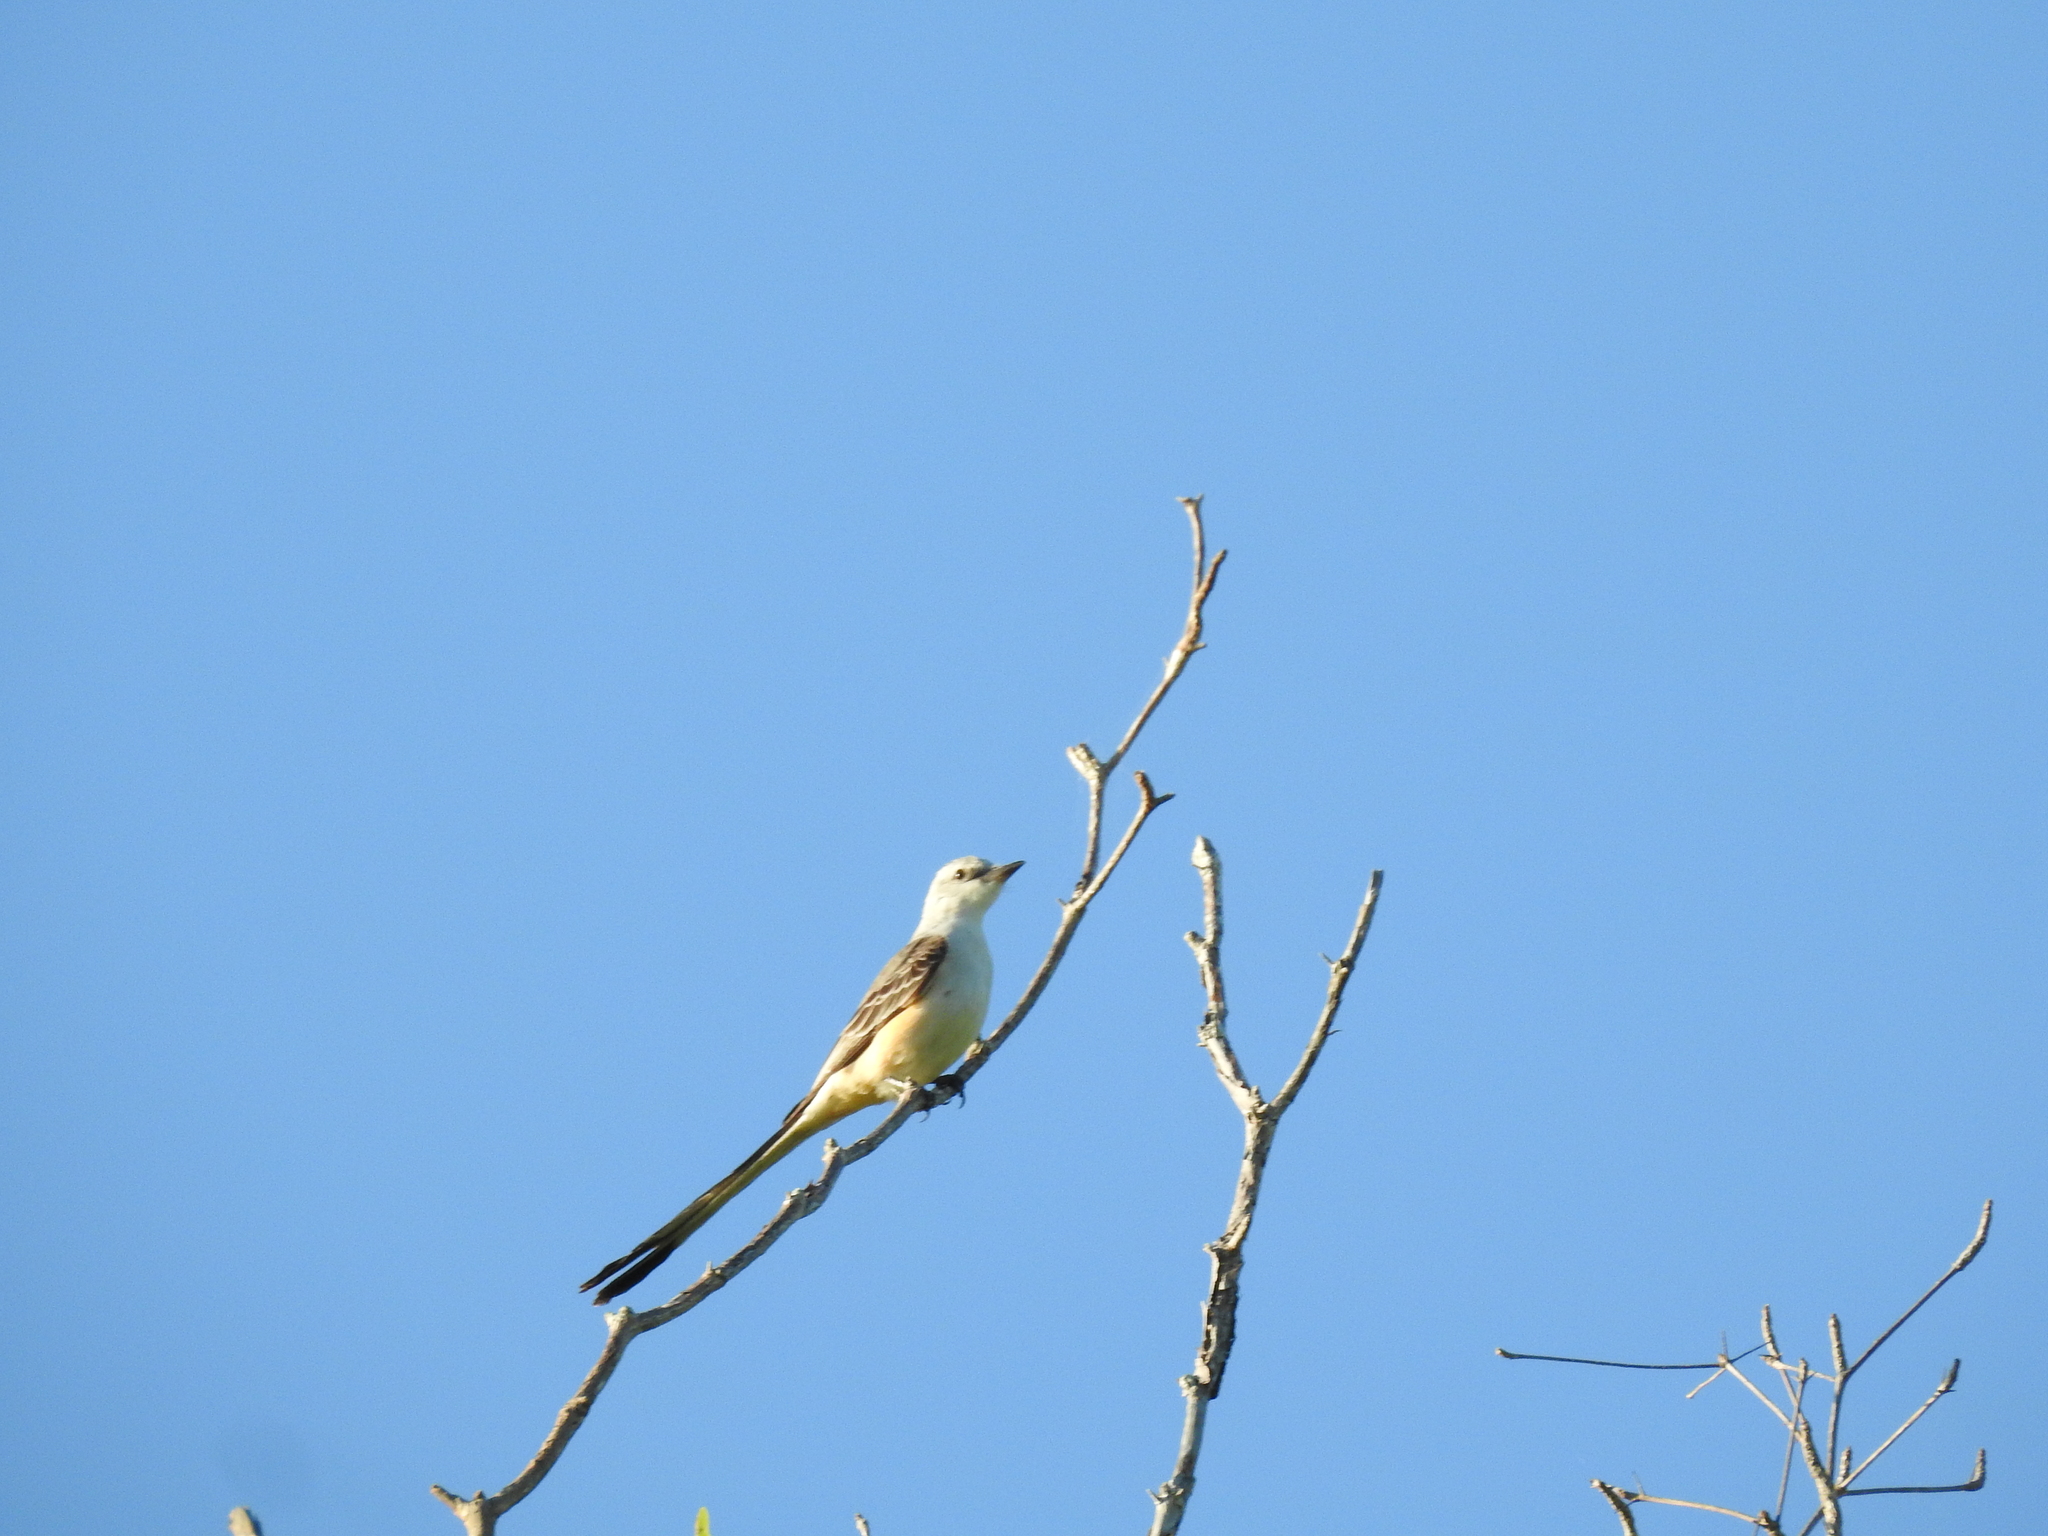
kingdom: Animalia
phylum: Chordata
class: Aves
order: Passeriformes
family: Tyrannidae
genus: Tyrannus
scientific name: Tyrannus forficatus
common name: Scissor-tailed flycatcher
